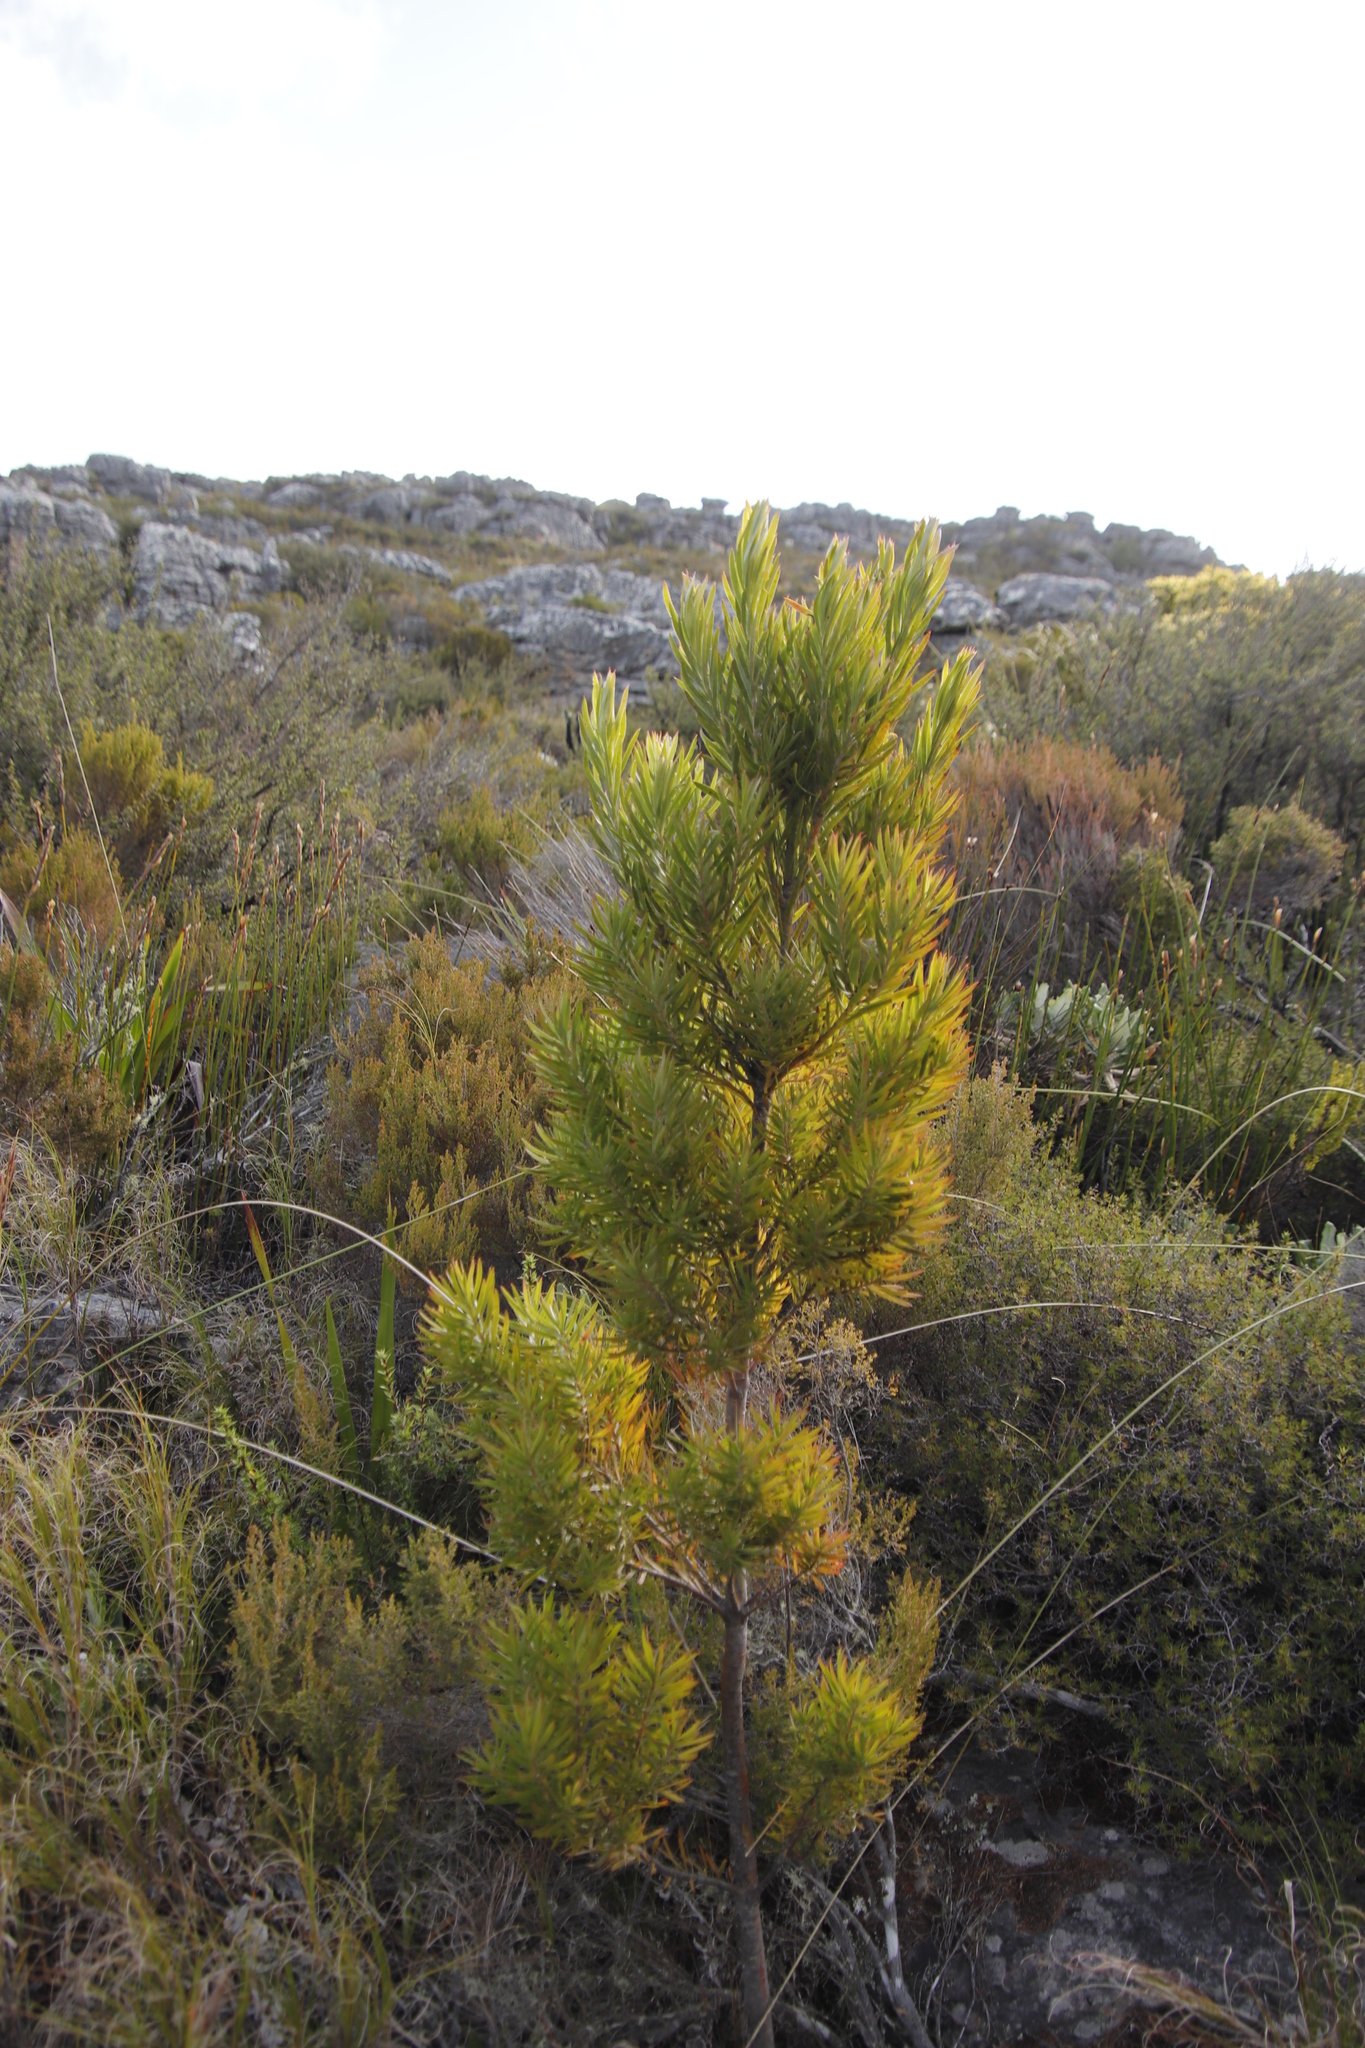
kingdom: Plantae
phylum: Tracheophyta
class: Magnoliopsida
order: Proteales
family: Proteaceae
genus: Leucadendron
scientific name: Leucadendron xanthoconus
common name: Sickle-leaf conebush
